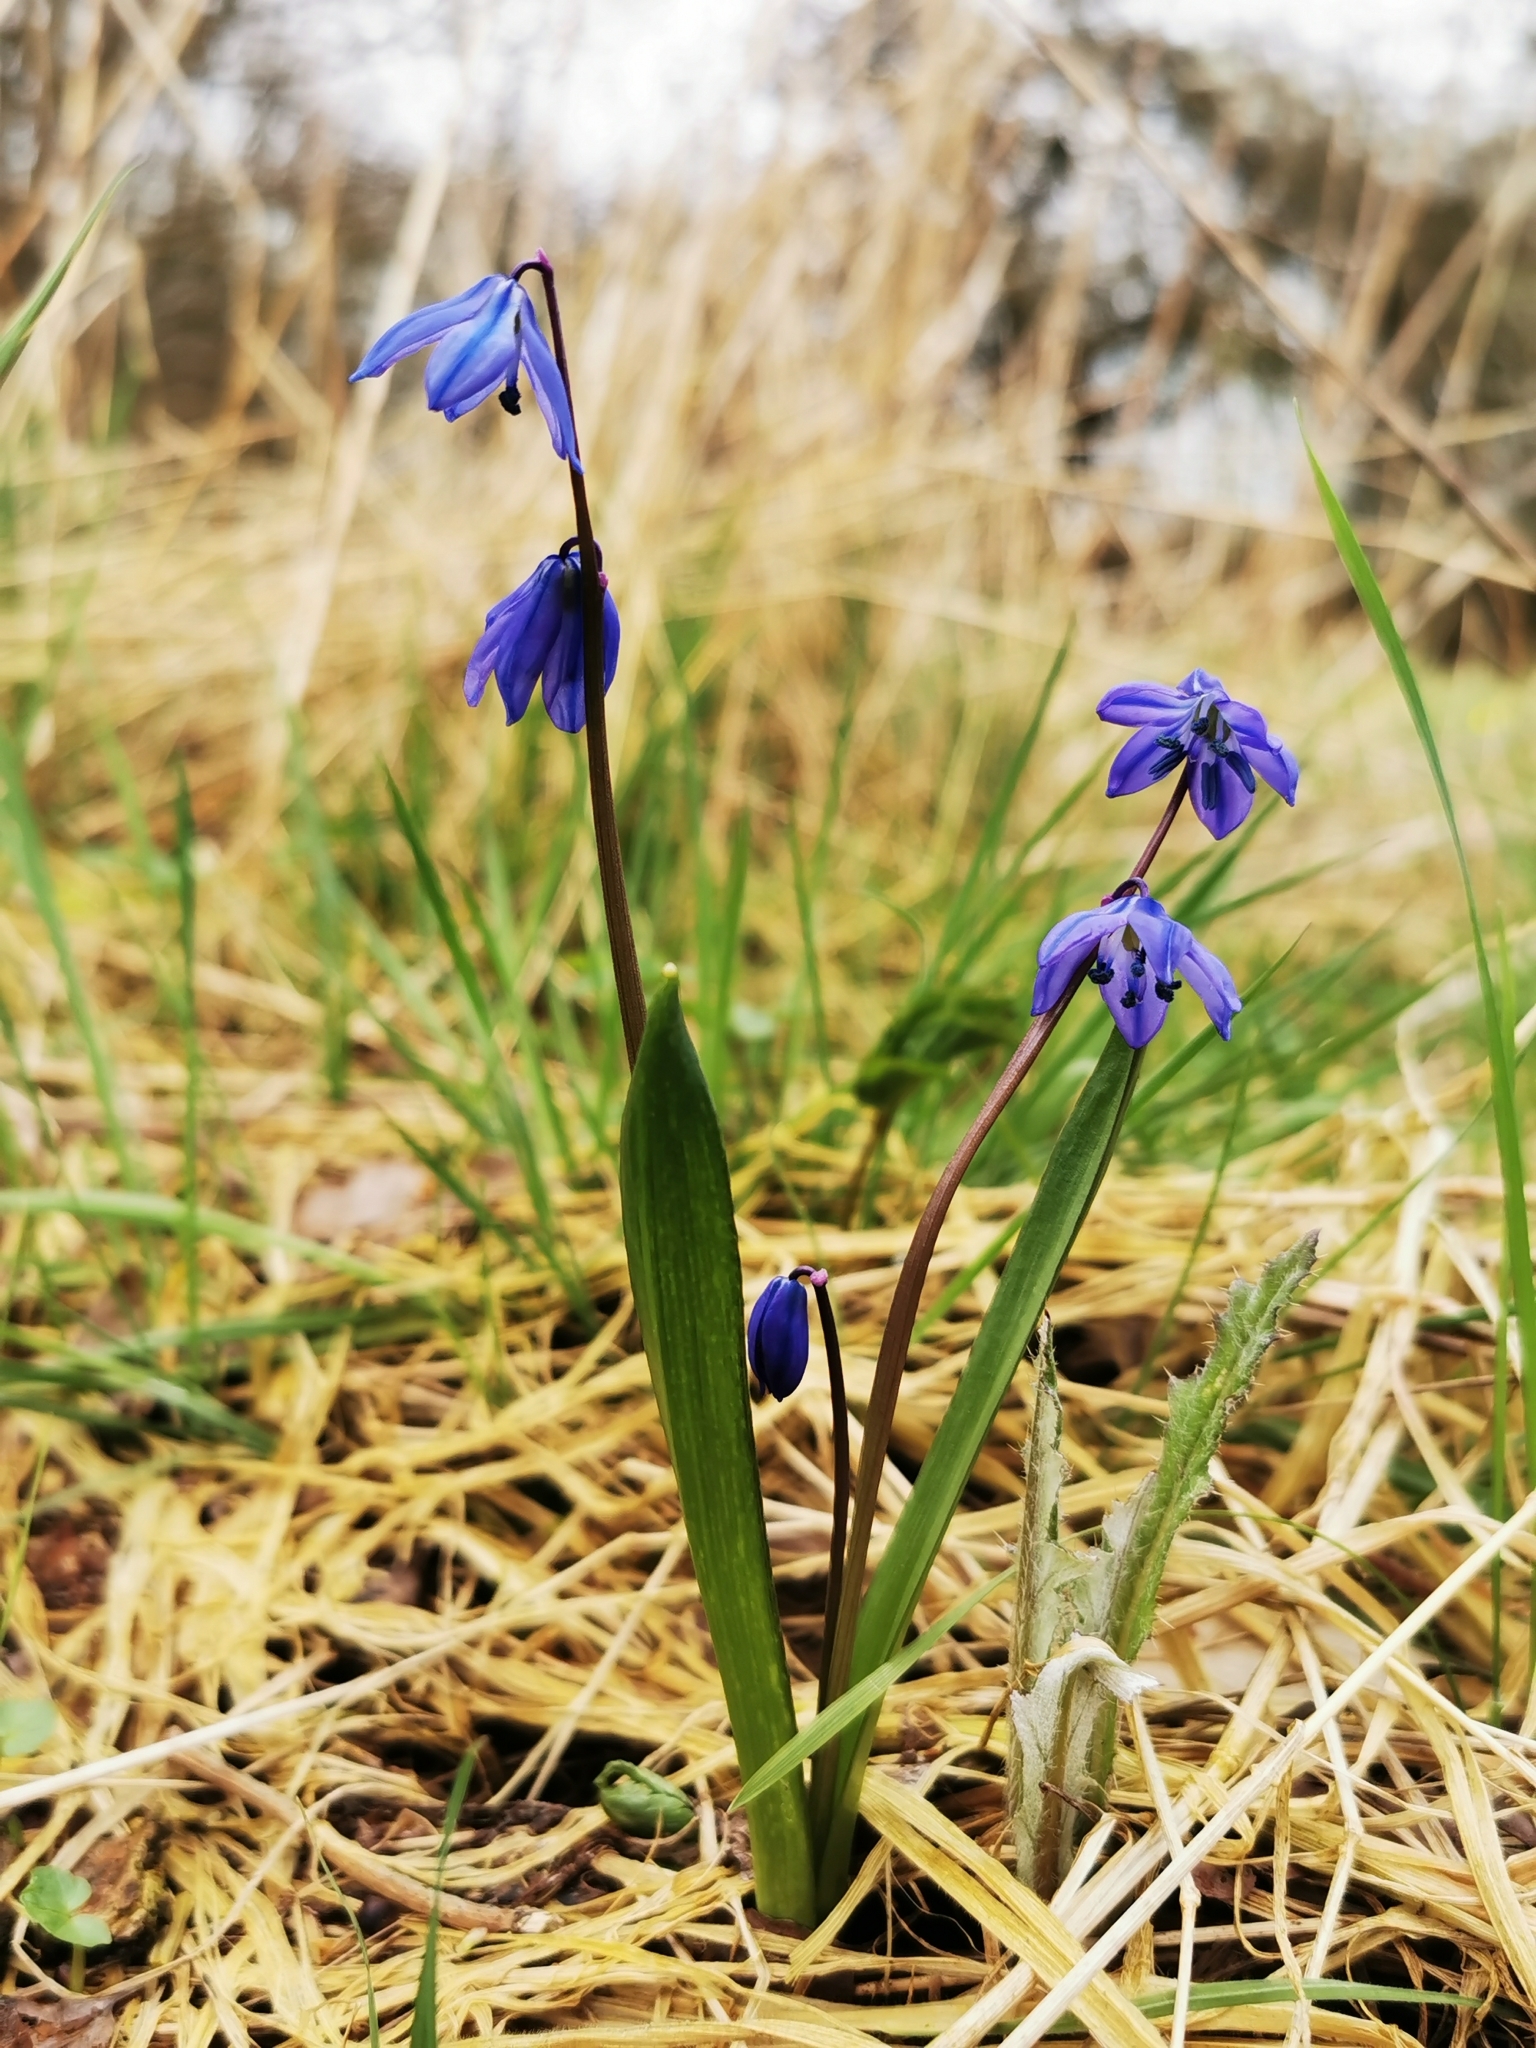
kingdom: Plantae
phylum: Tracheophyta
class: Liliopsida
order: Asparagales
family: Asparagaceae
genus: Scilla
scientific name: Scilla siberica
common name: Siberian squill
